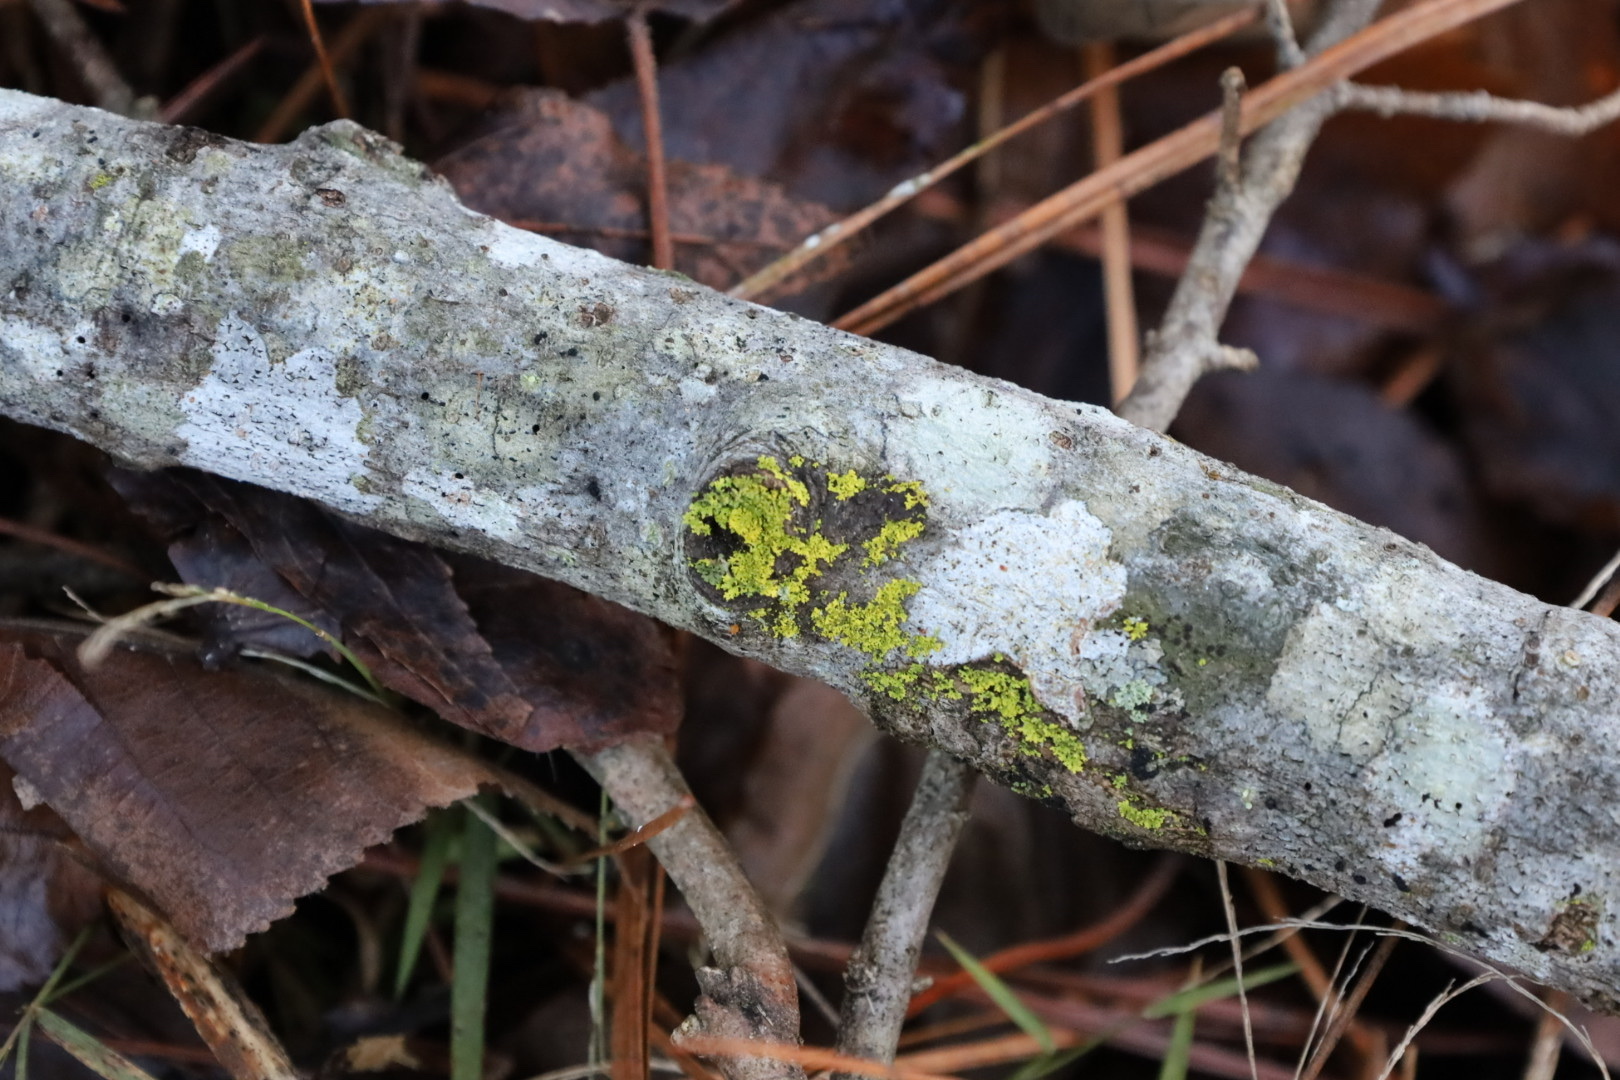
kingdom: Fungi
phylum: Ascomycota
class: Candelariomycetes
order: Candelariales
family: Candelariaceae
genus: Candelaria
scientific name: Candelaria concolor
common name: Candleflame lichen
